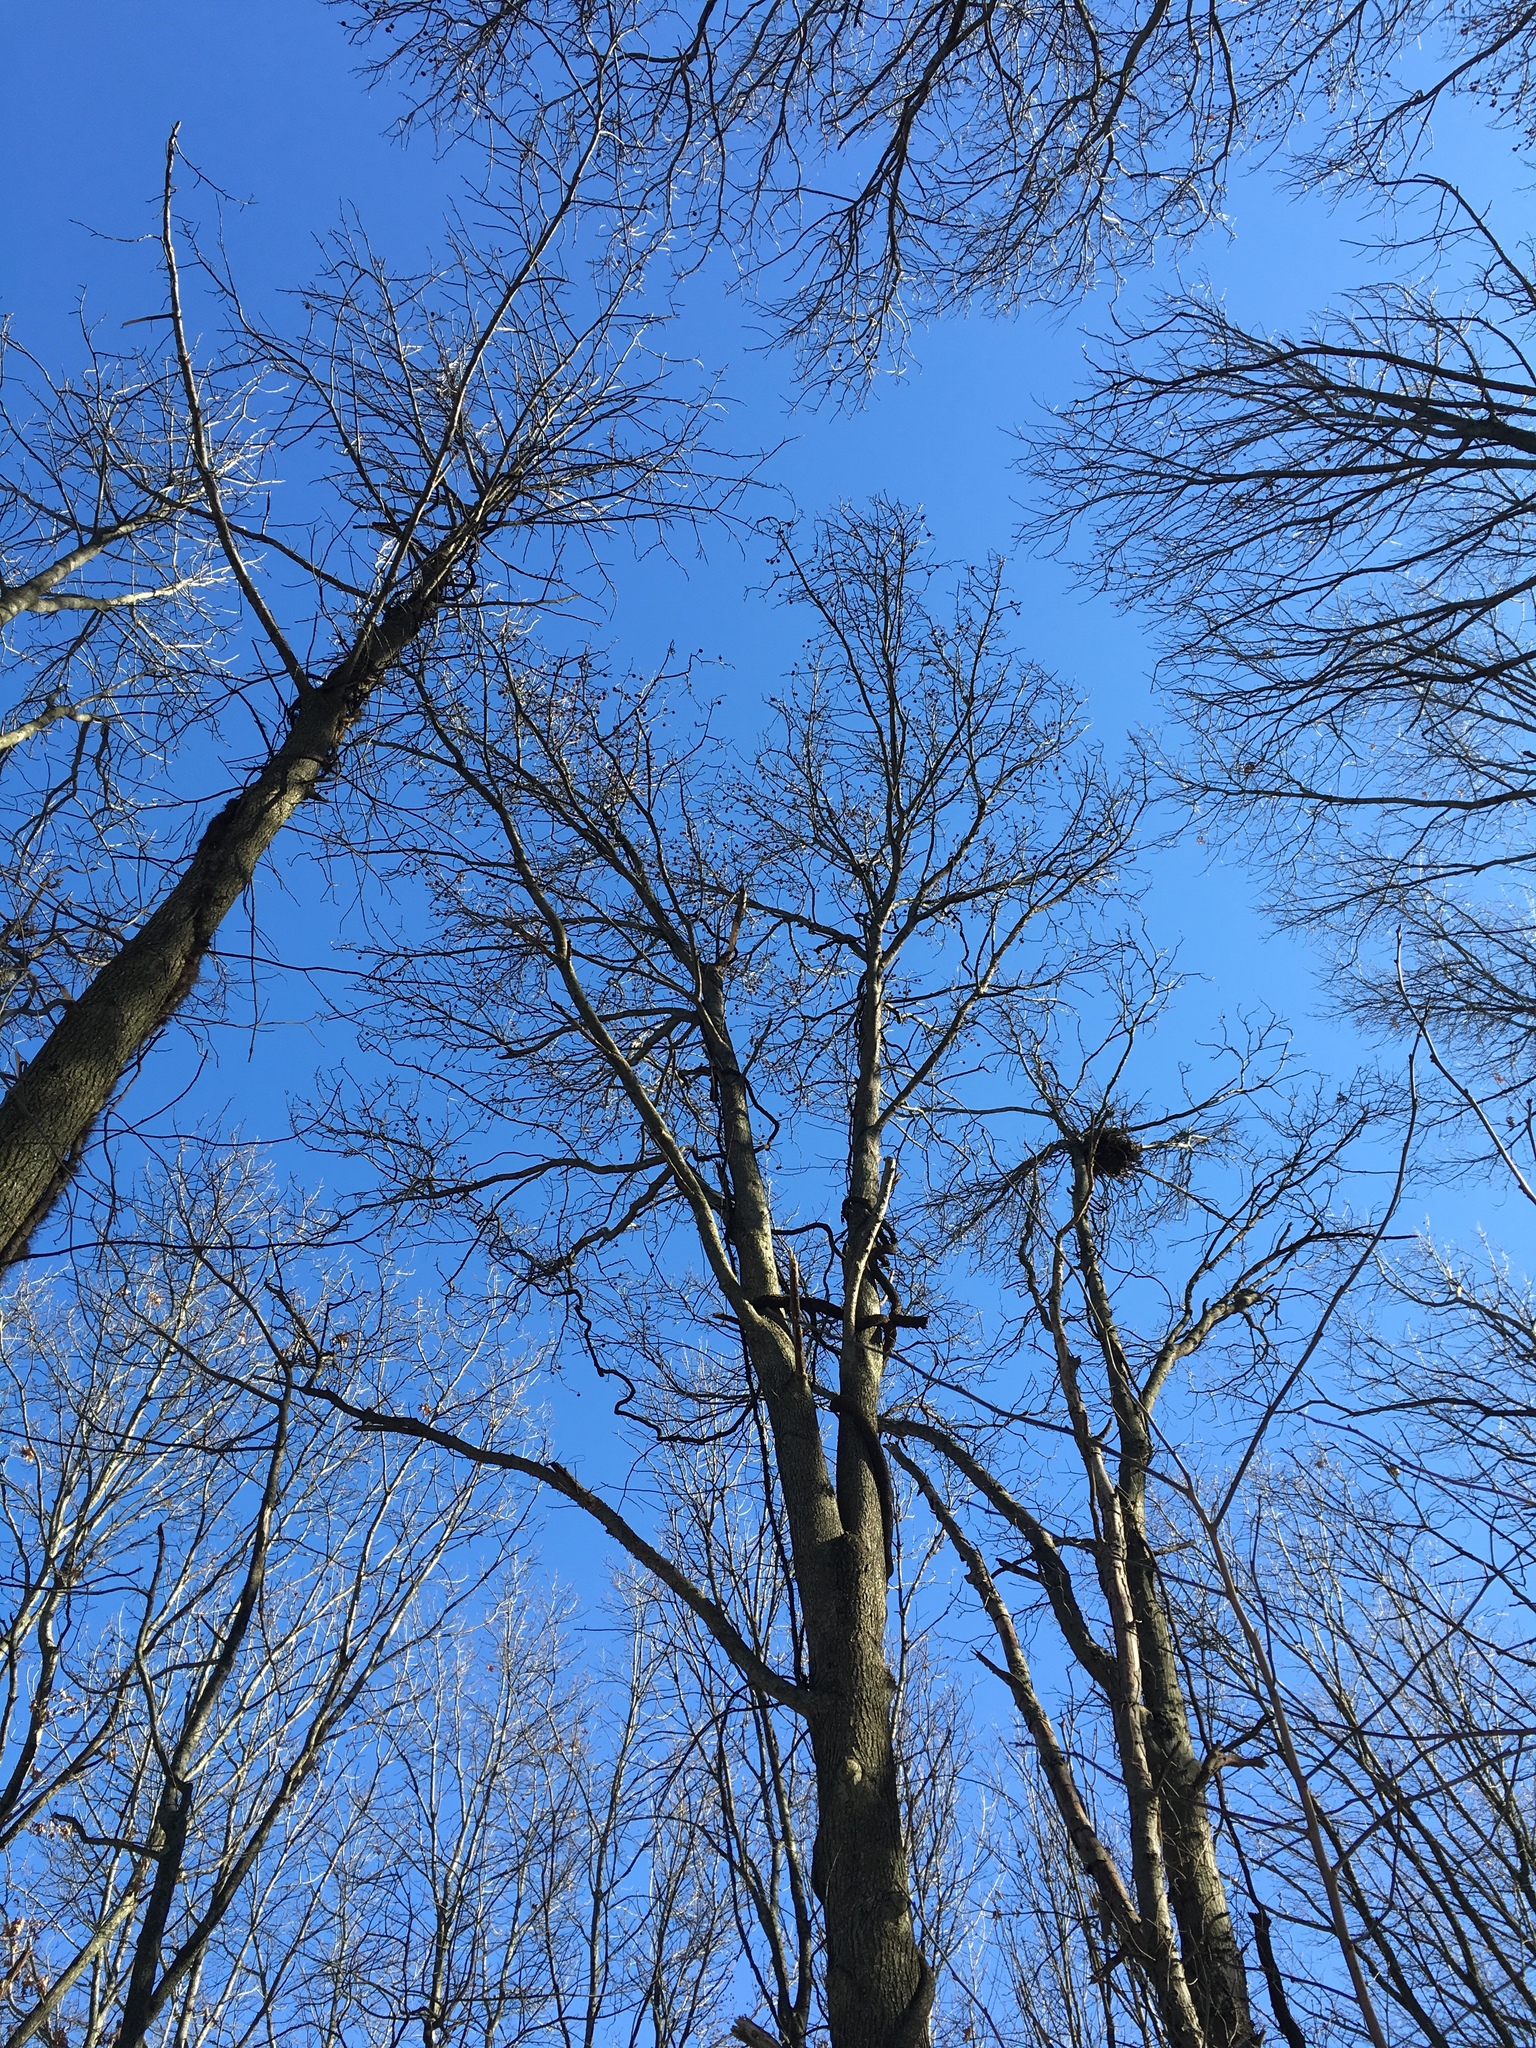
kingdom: Plantae
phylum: Tracheophyta
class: Magnoliopsida
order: Saxifragales
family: Altingiaceae
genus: Liquidambar
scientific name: Liquidambar styraciflua
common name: Sweet gum
